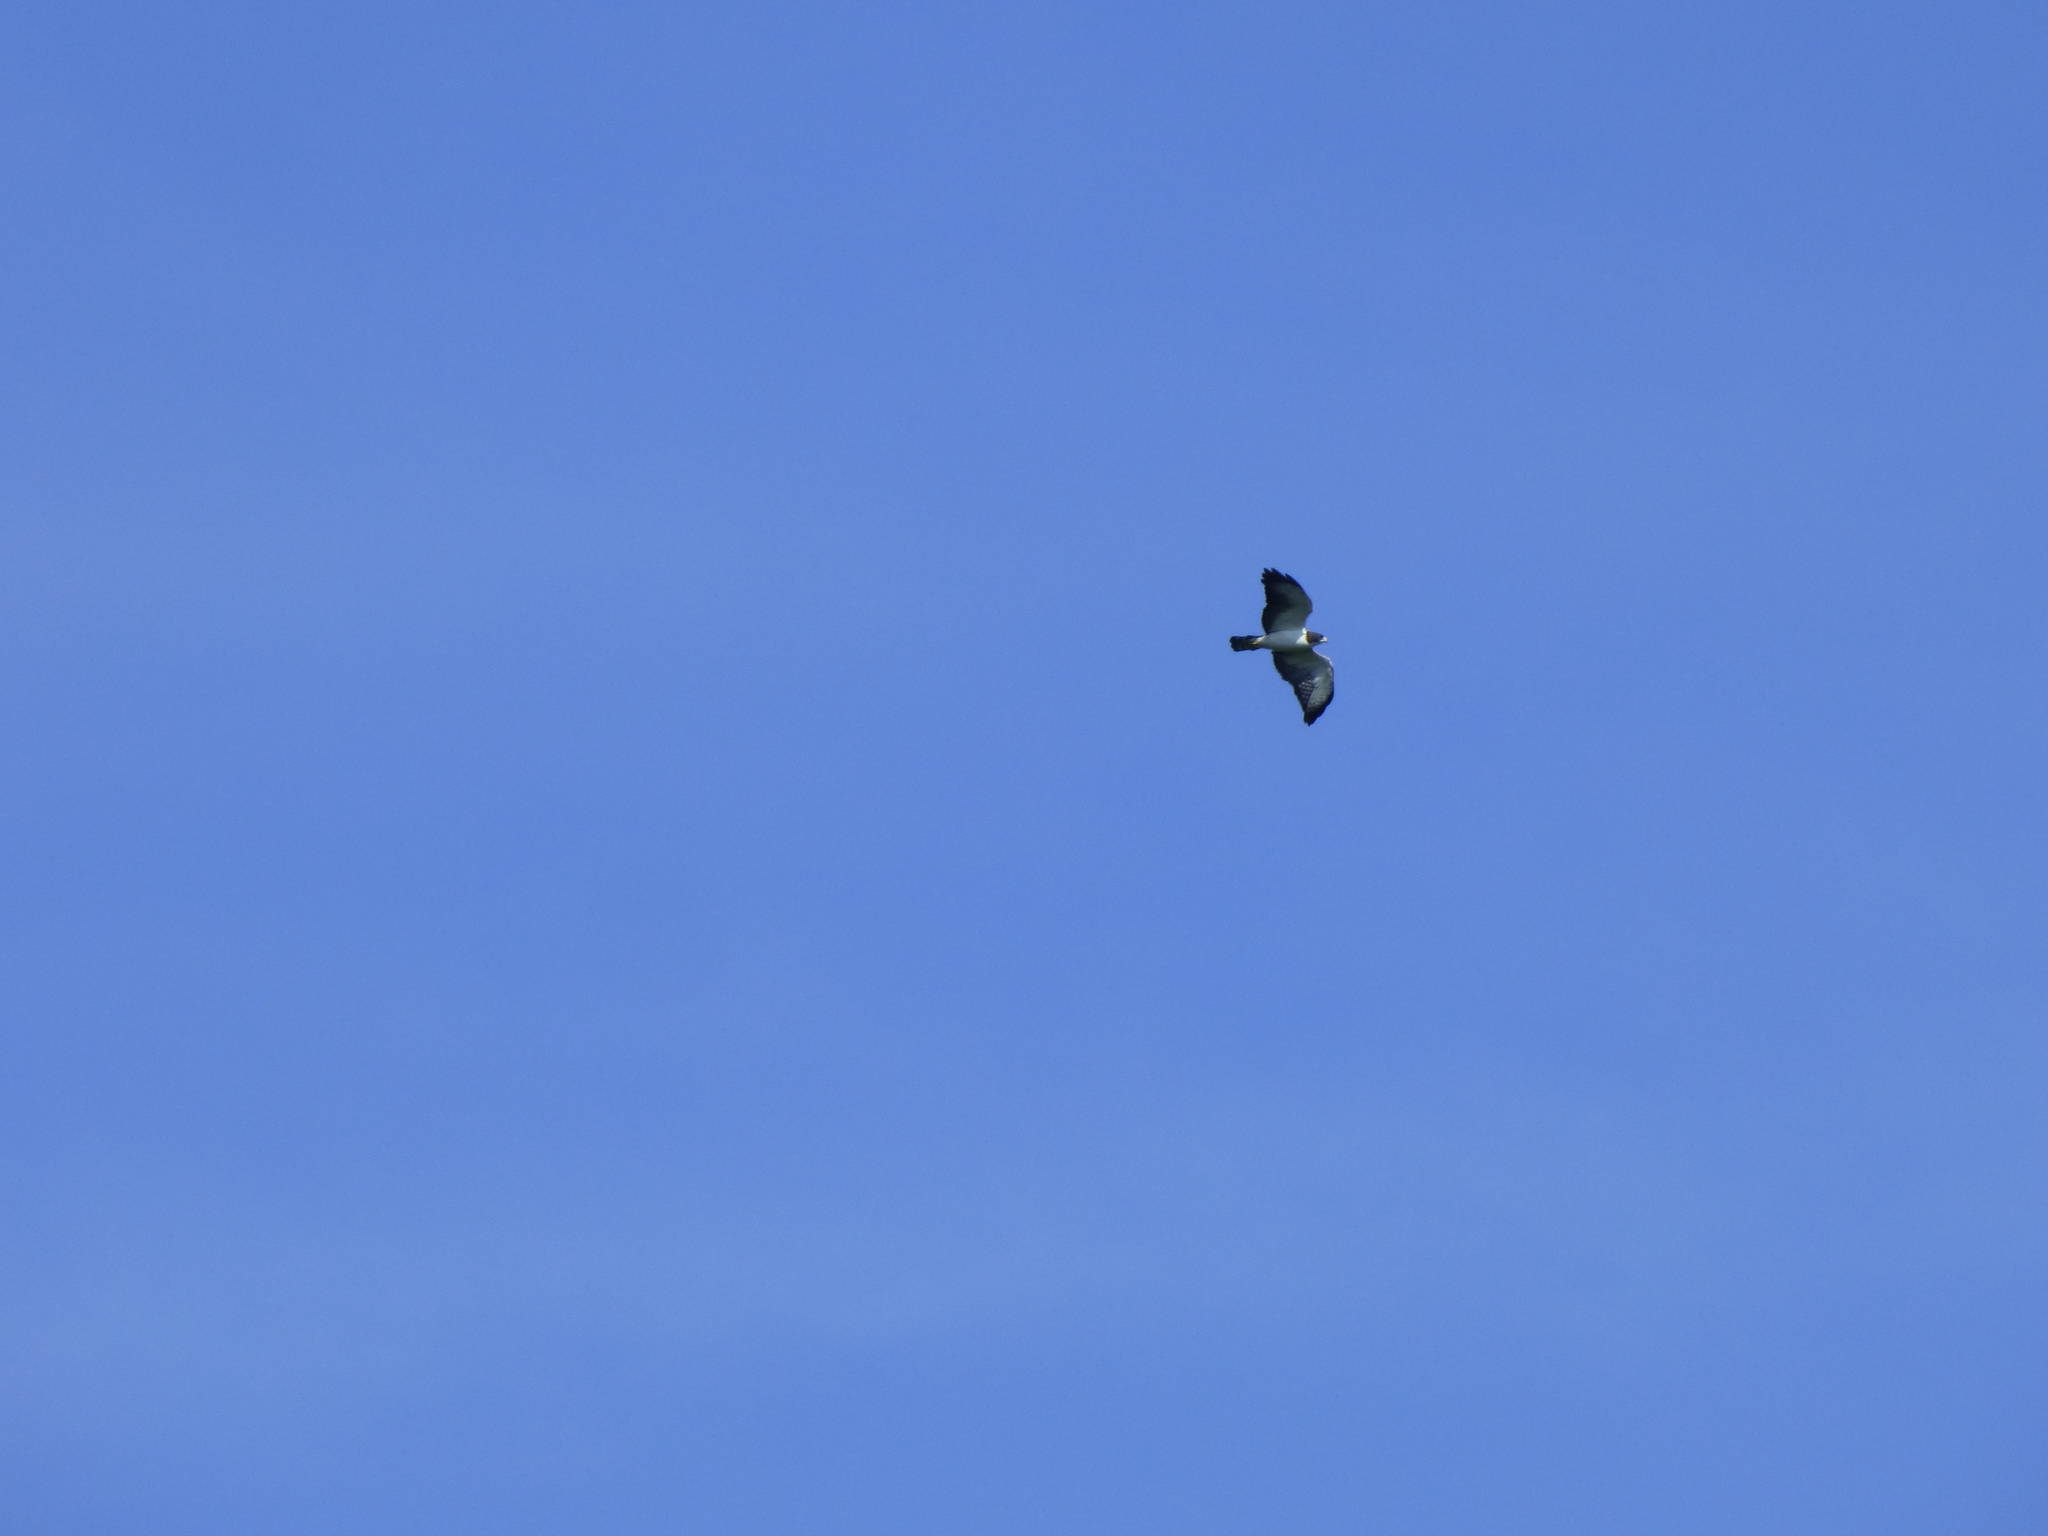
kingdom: Animalia
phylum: Chordata
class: Aves
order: Accipitriformes
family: Accipitridae
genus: Buteo
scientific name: Buteo brachyurus
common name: Short-tailed hawk
